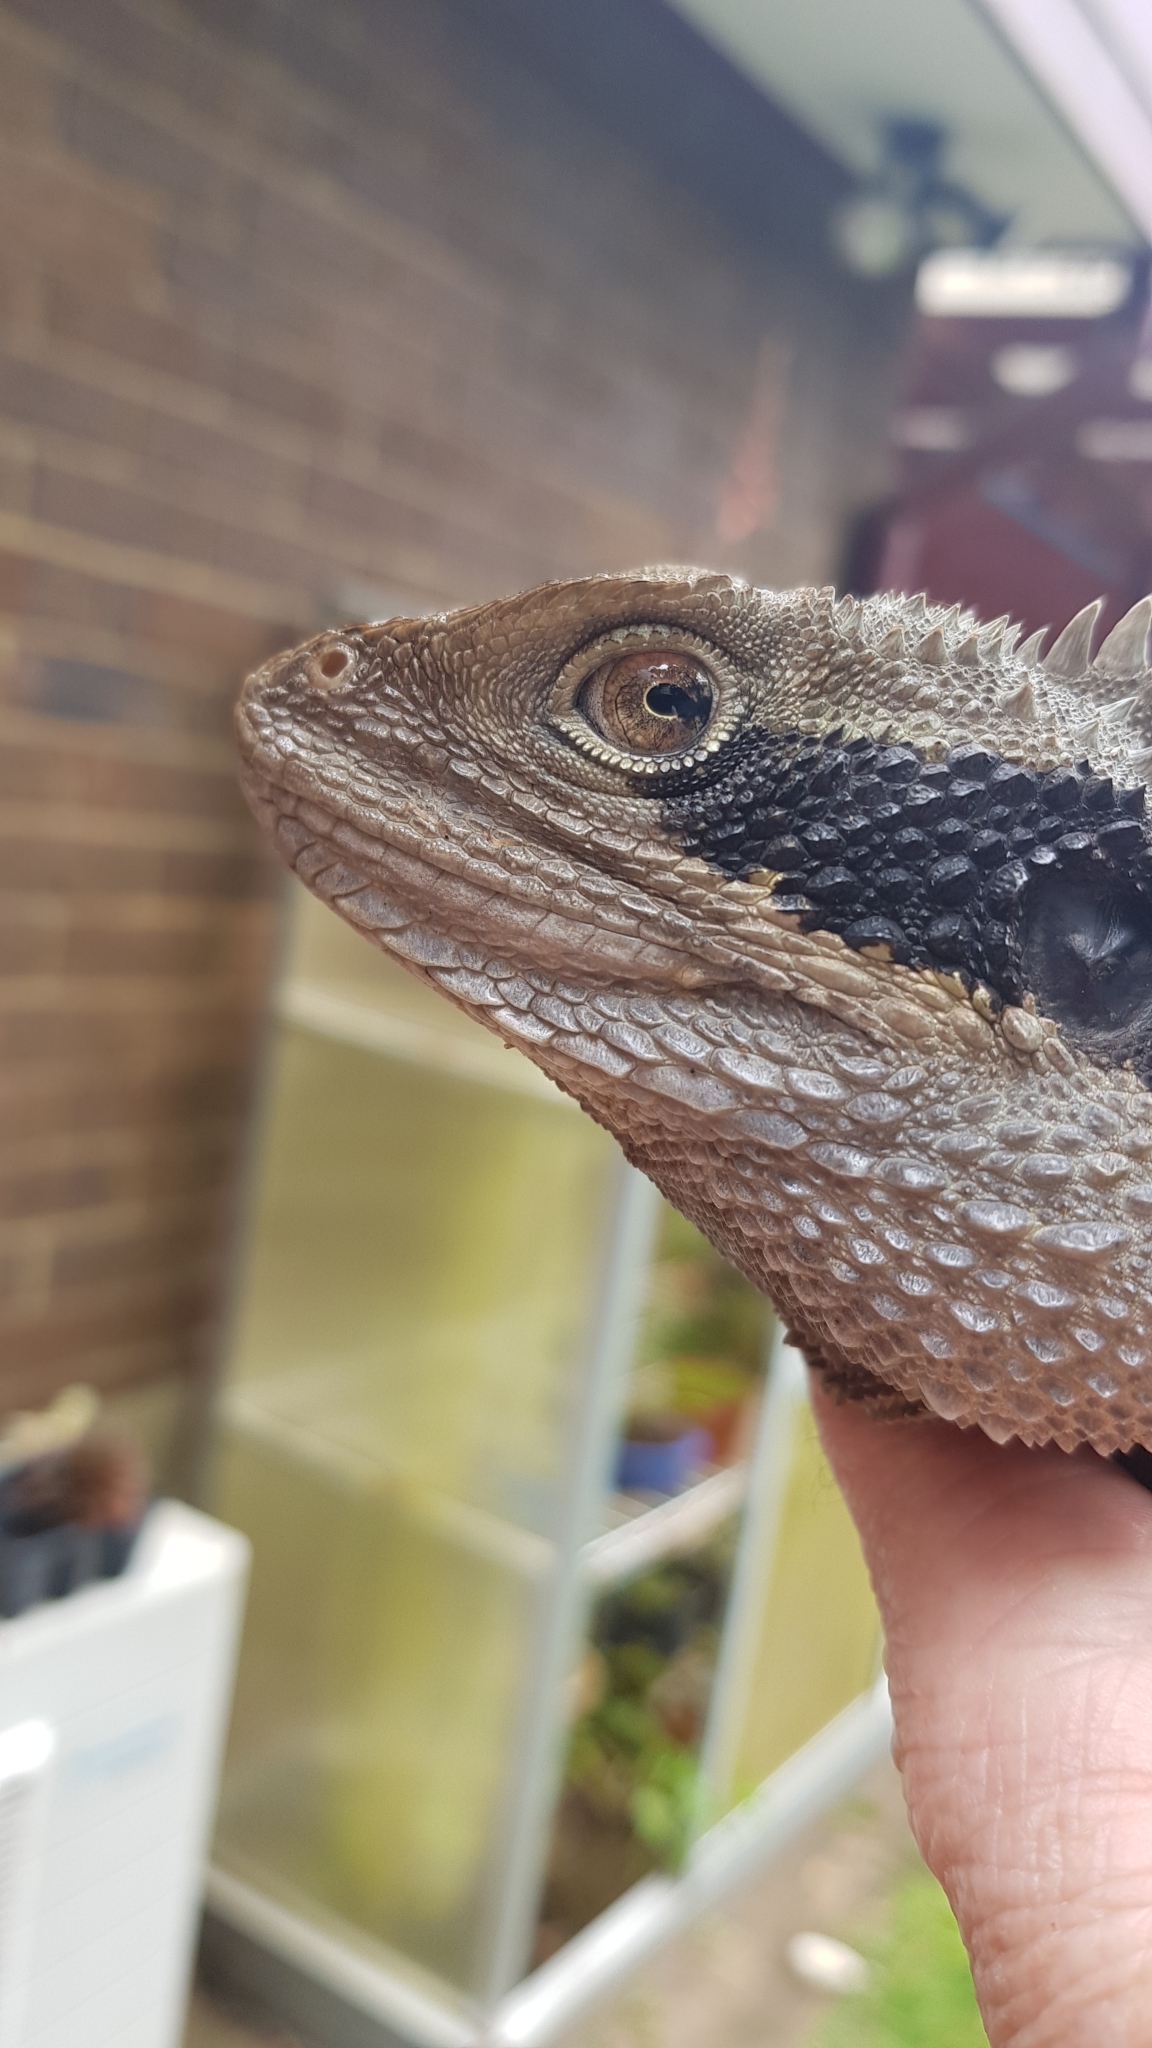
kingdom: Animalia
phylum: Chordata
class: Squamata
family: Agamidae
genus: Intellagama
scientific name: Intellagama lesueurii
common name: Eastern water dragon
